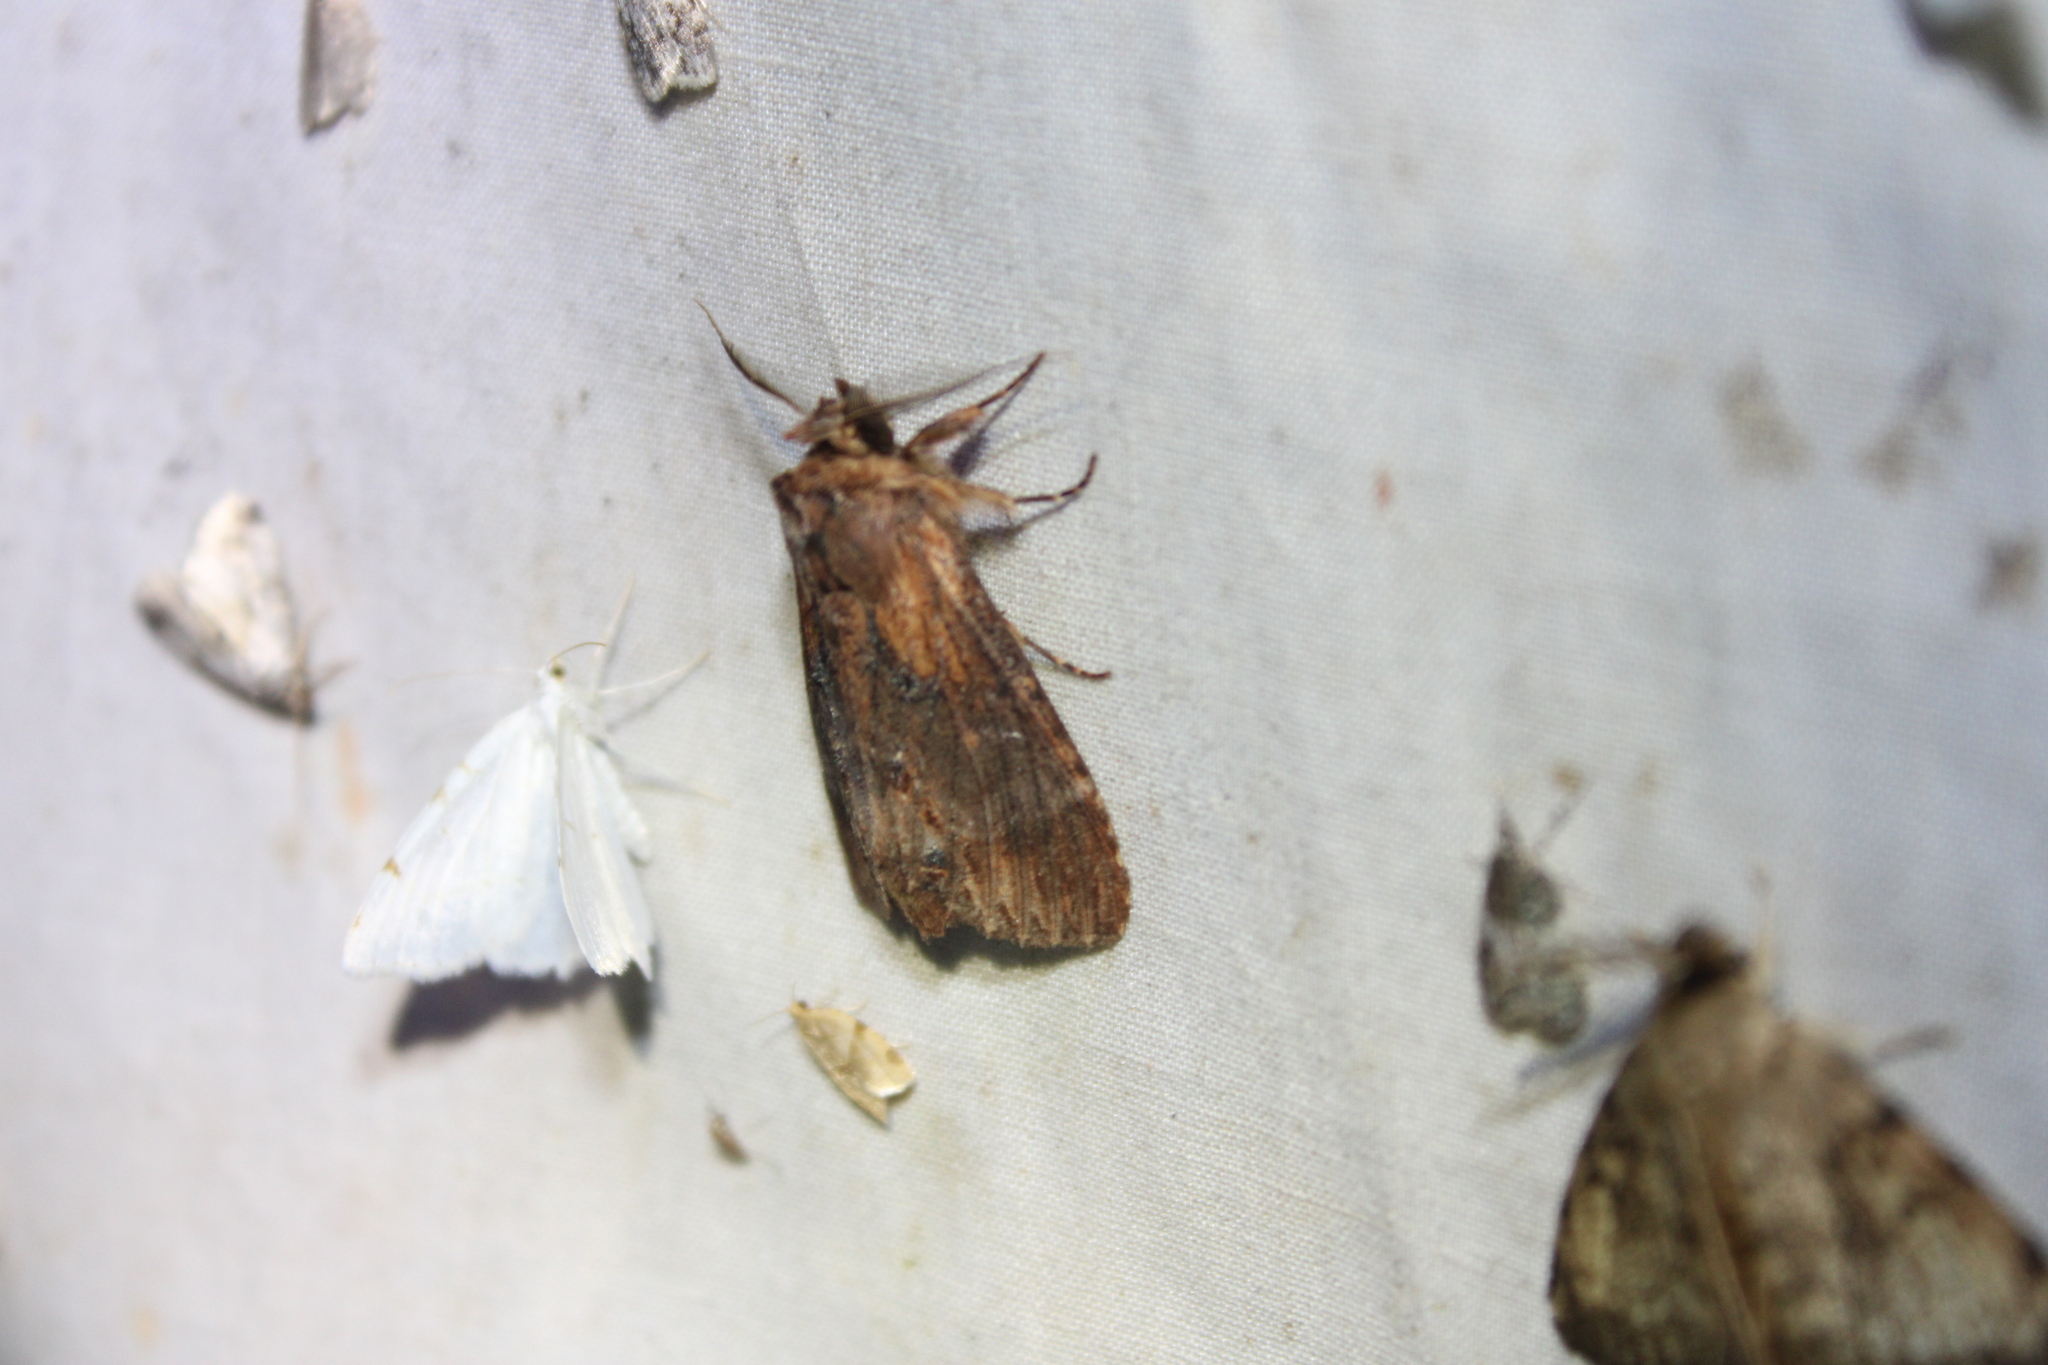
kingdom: Animalia
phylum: Arthropoda
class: Insecta
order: Lepidoptera
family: Notodontidae
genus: Dasylophia
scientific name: Dasylophia thyatiroides
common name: Gray-patched prominent
